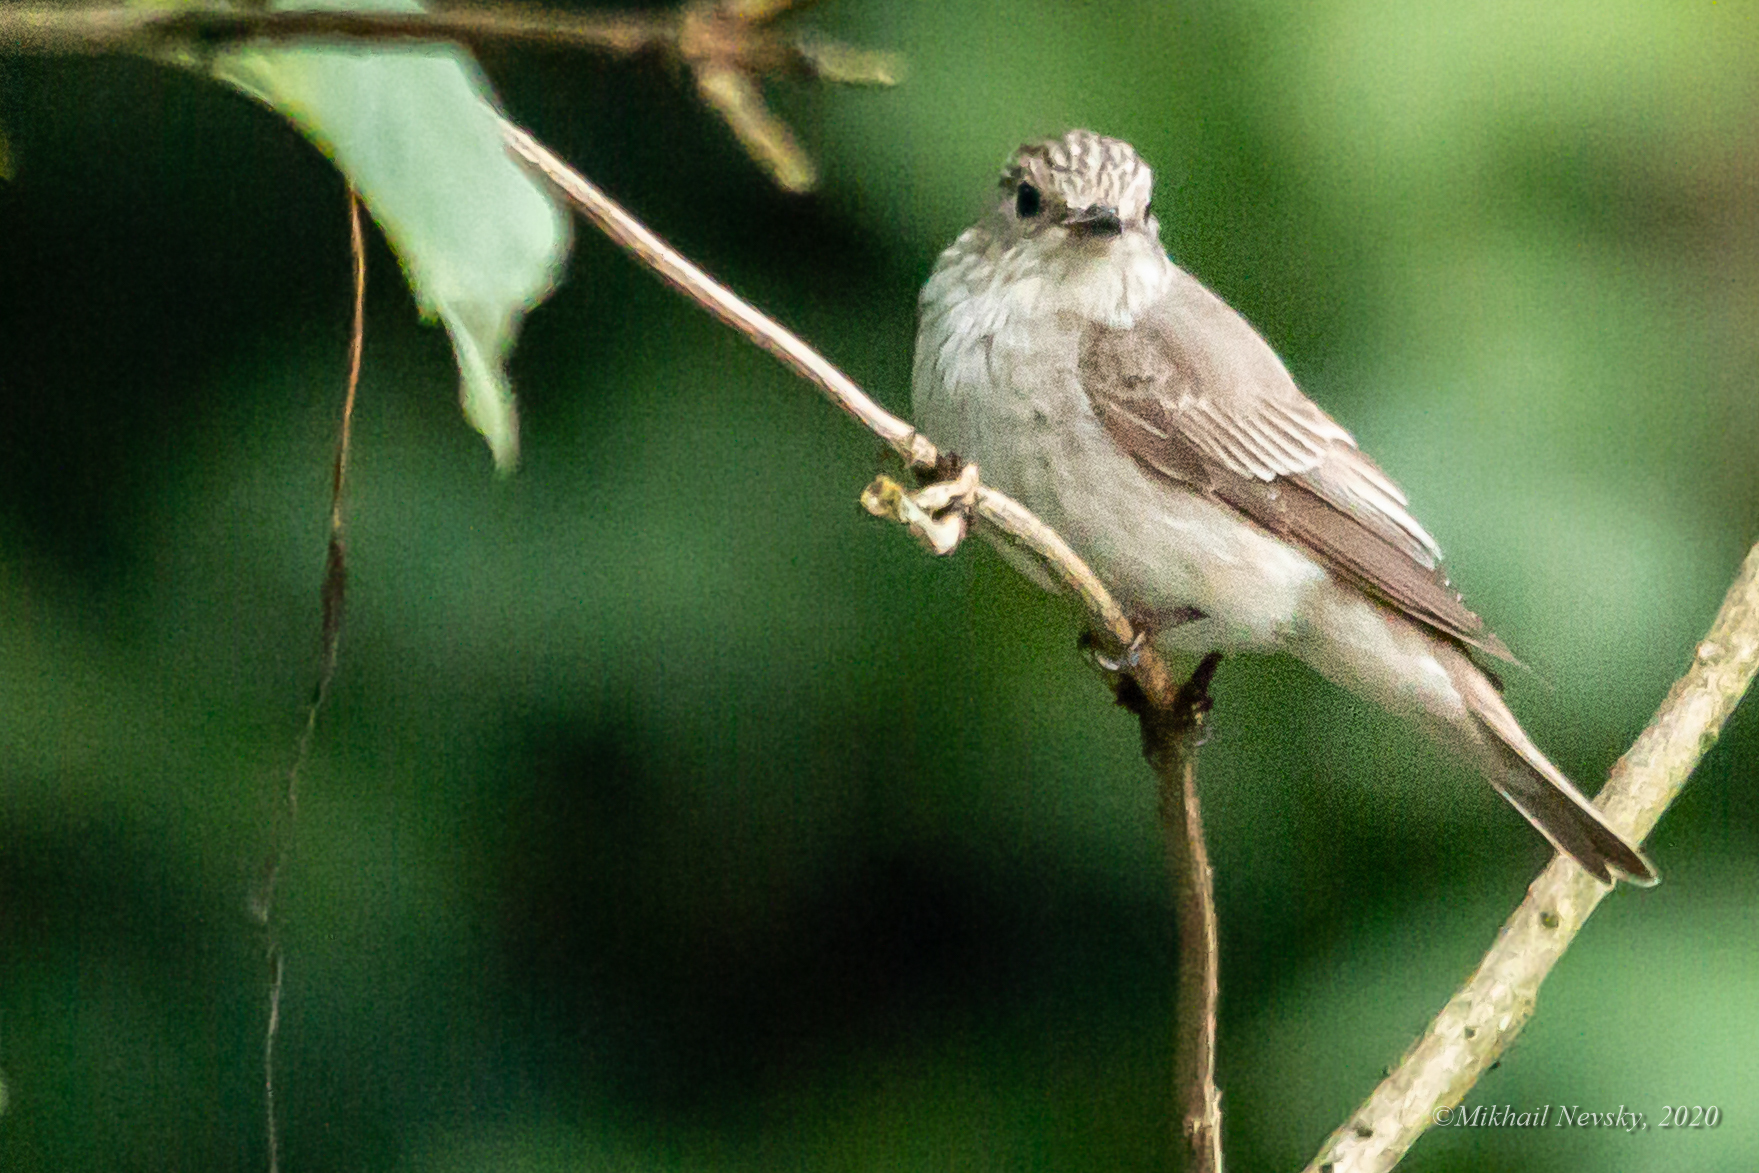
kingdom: Animalia
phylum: Chordata
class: Aves
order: Passeriformes
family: Muscicapidae
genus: Muscicapa
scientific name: Muscicapa striata
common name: Spotted flycatcher
